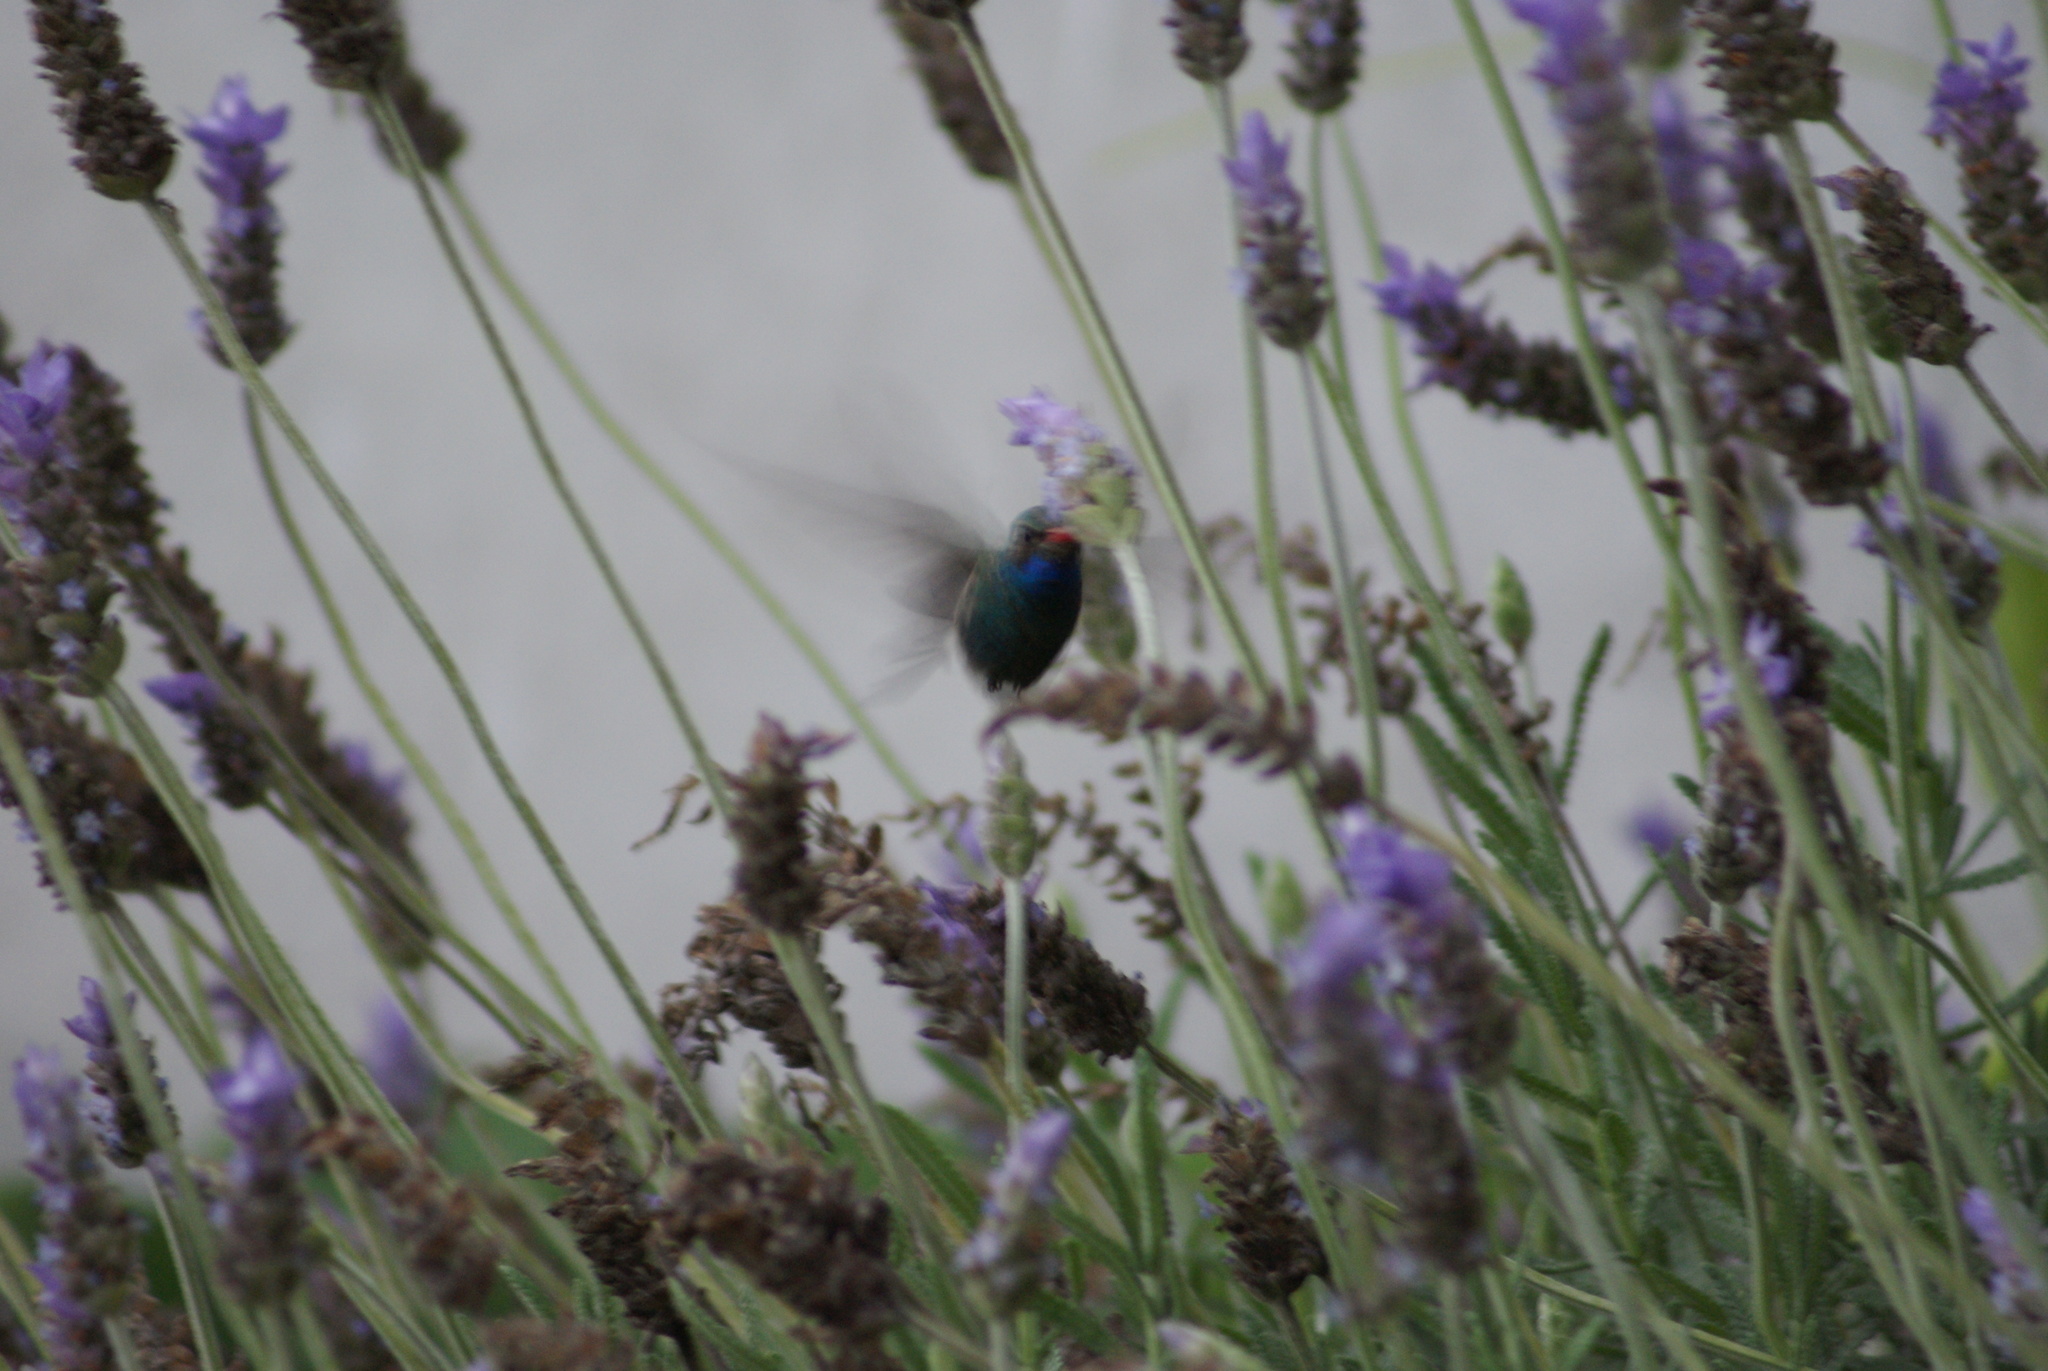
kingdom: Animalia
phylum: Chordata
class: Aves
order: Apodiformes
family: Trochilidae
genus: Cynanthus
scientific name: Cynanthus latirostris
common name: Broad-billed hummingbird
